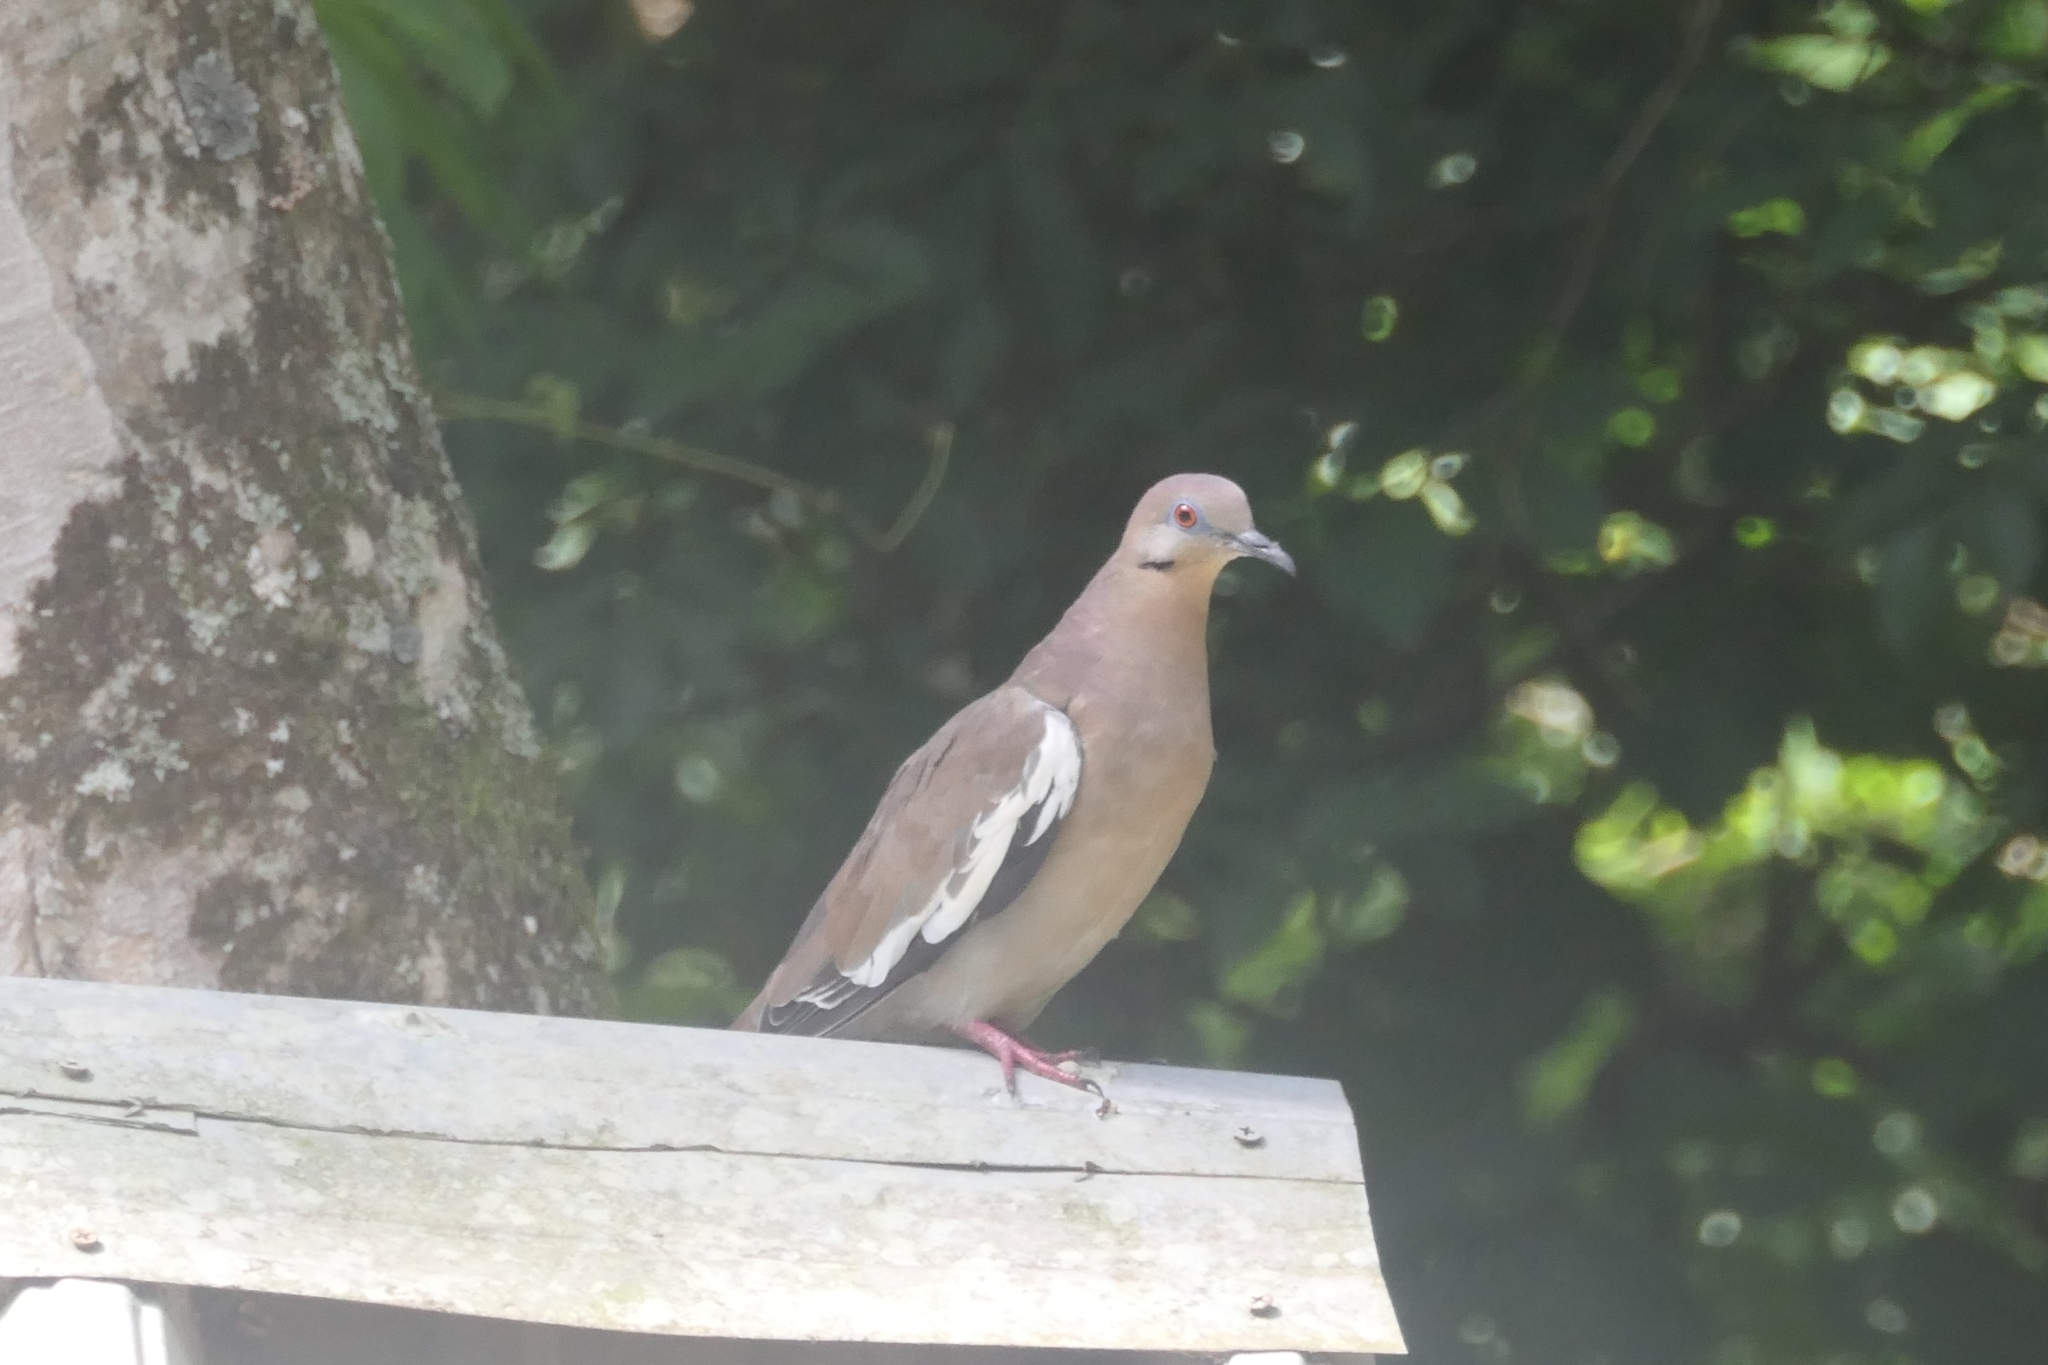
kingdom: Animalia
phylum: Chordata
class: Aves
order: Columbiformes
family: Columbidae
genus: Zenaida
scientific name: Zenaida asiatica
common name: White-winged dove
